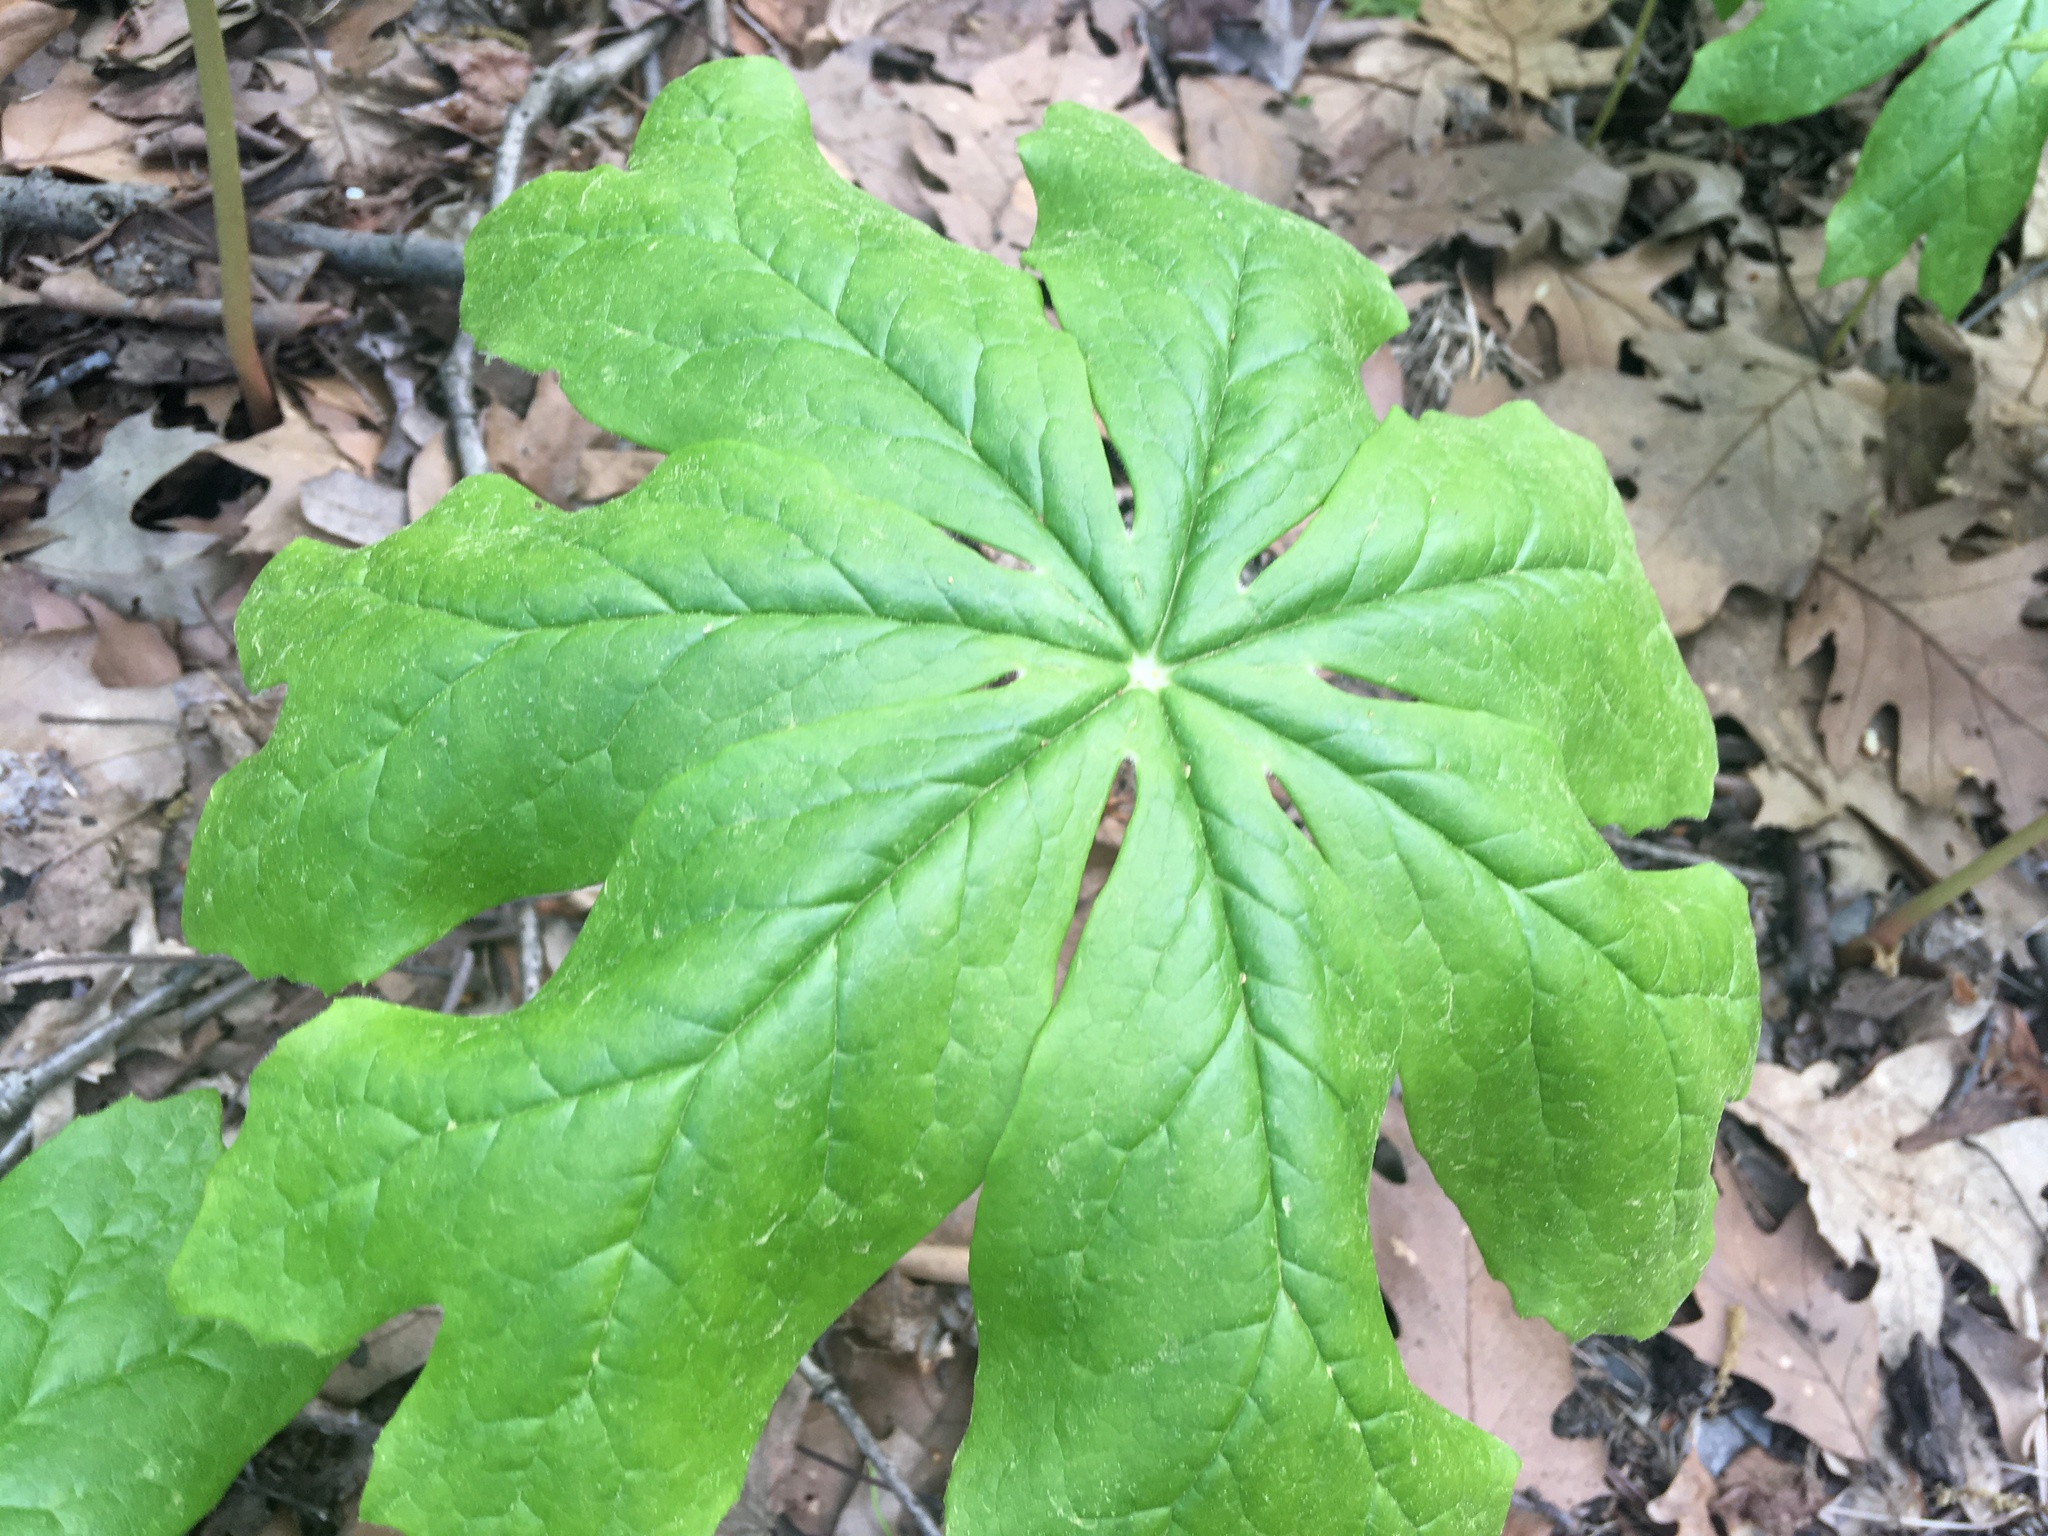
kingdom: Plantae
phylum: Tracheophyta
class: Magnoliopsida
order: Ranunculales
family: Berberidaceae
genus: Podophyllum
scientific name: Podophyllum peltatum
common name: Wild mandrake
